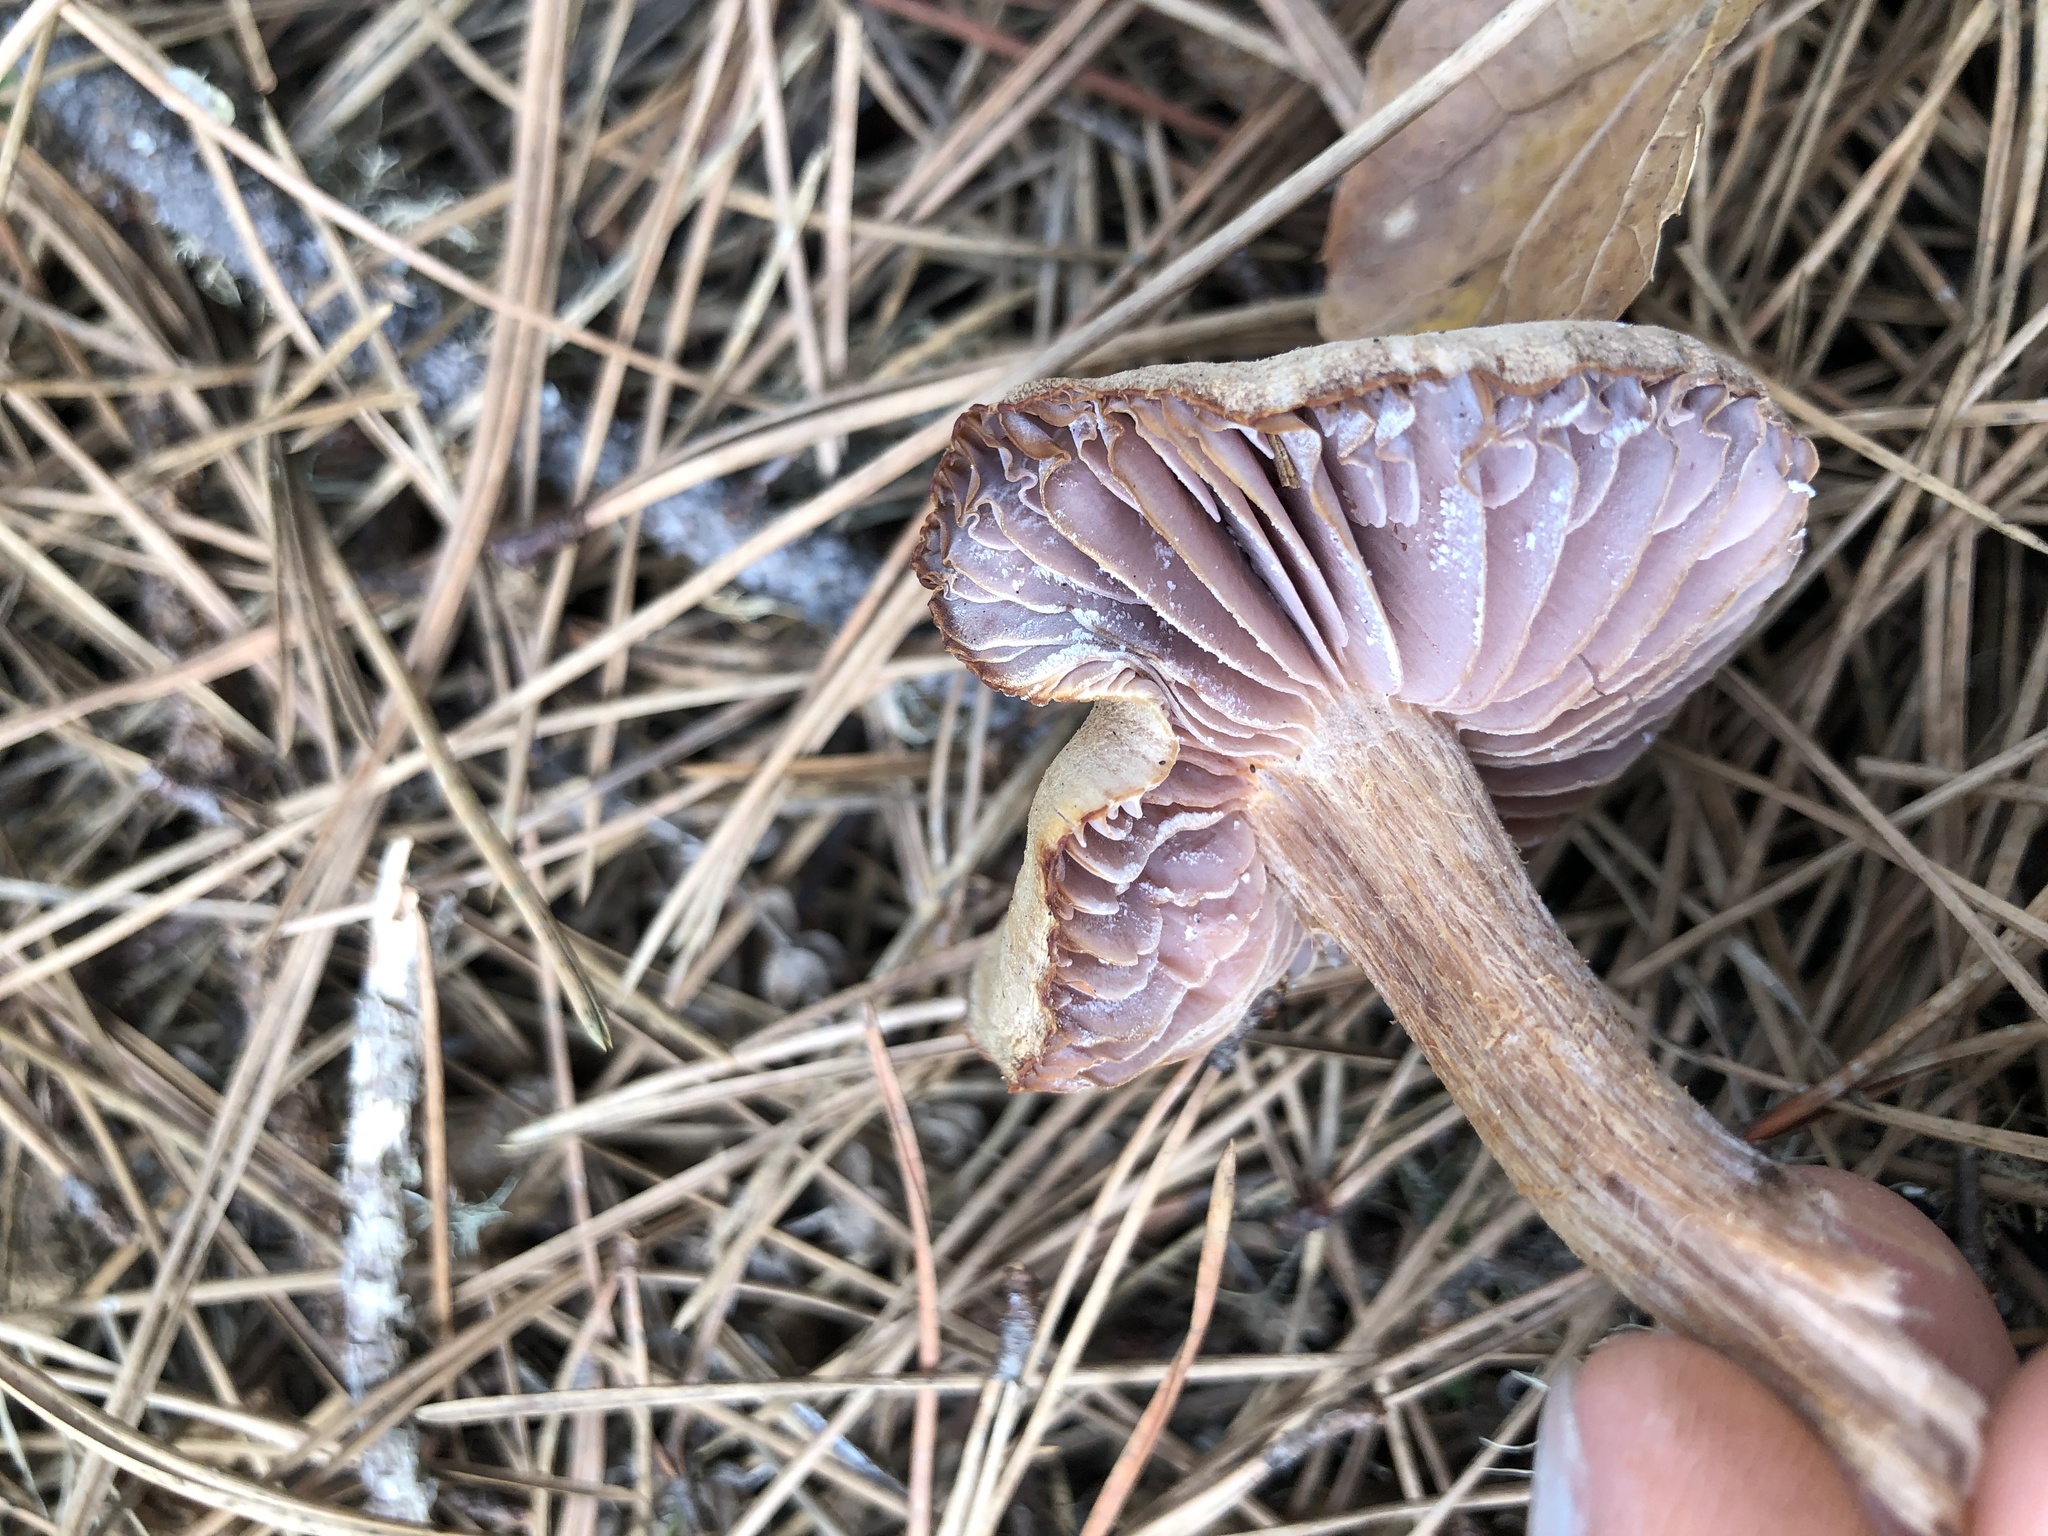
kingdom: Fungi
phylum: Basidiomycota
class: Agaricomycetes
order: Agaricales
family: Hydnangiaceae
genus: Laccaria
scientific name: Laccaria amethysteo-occidentalis
